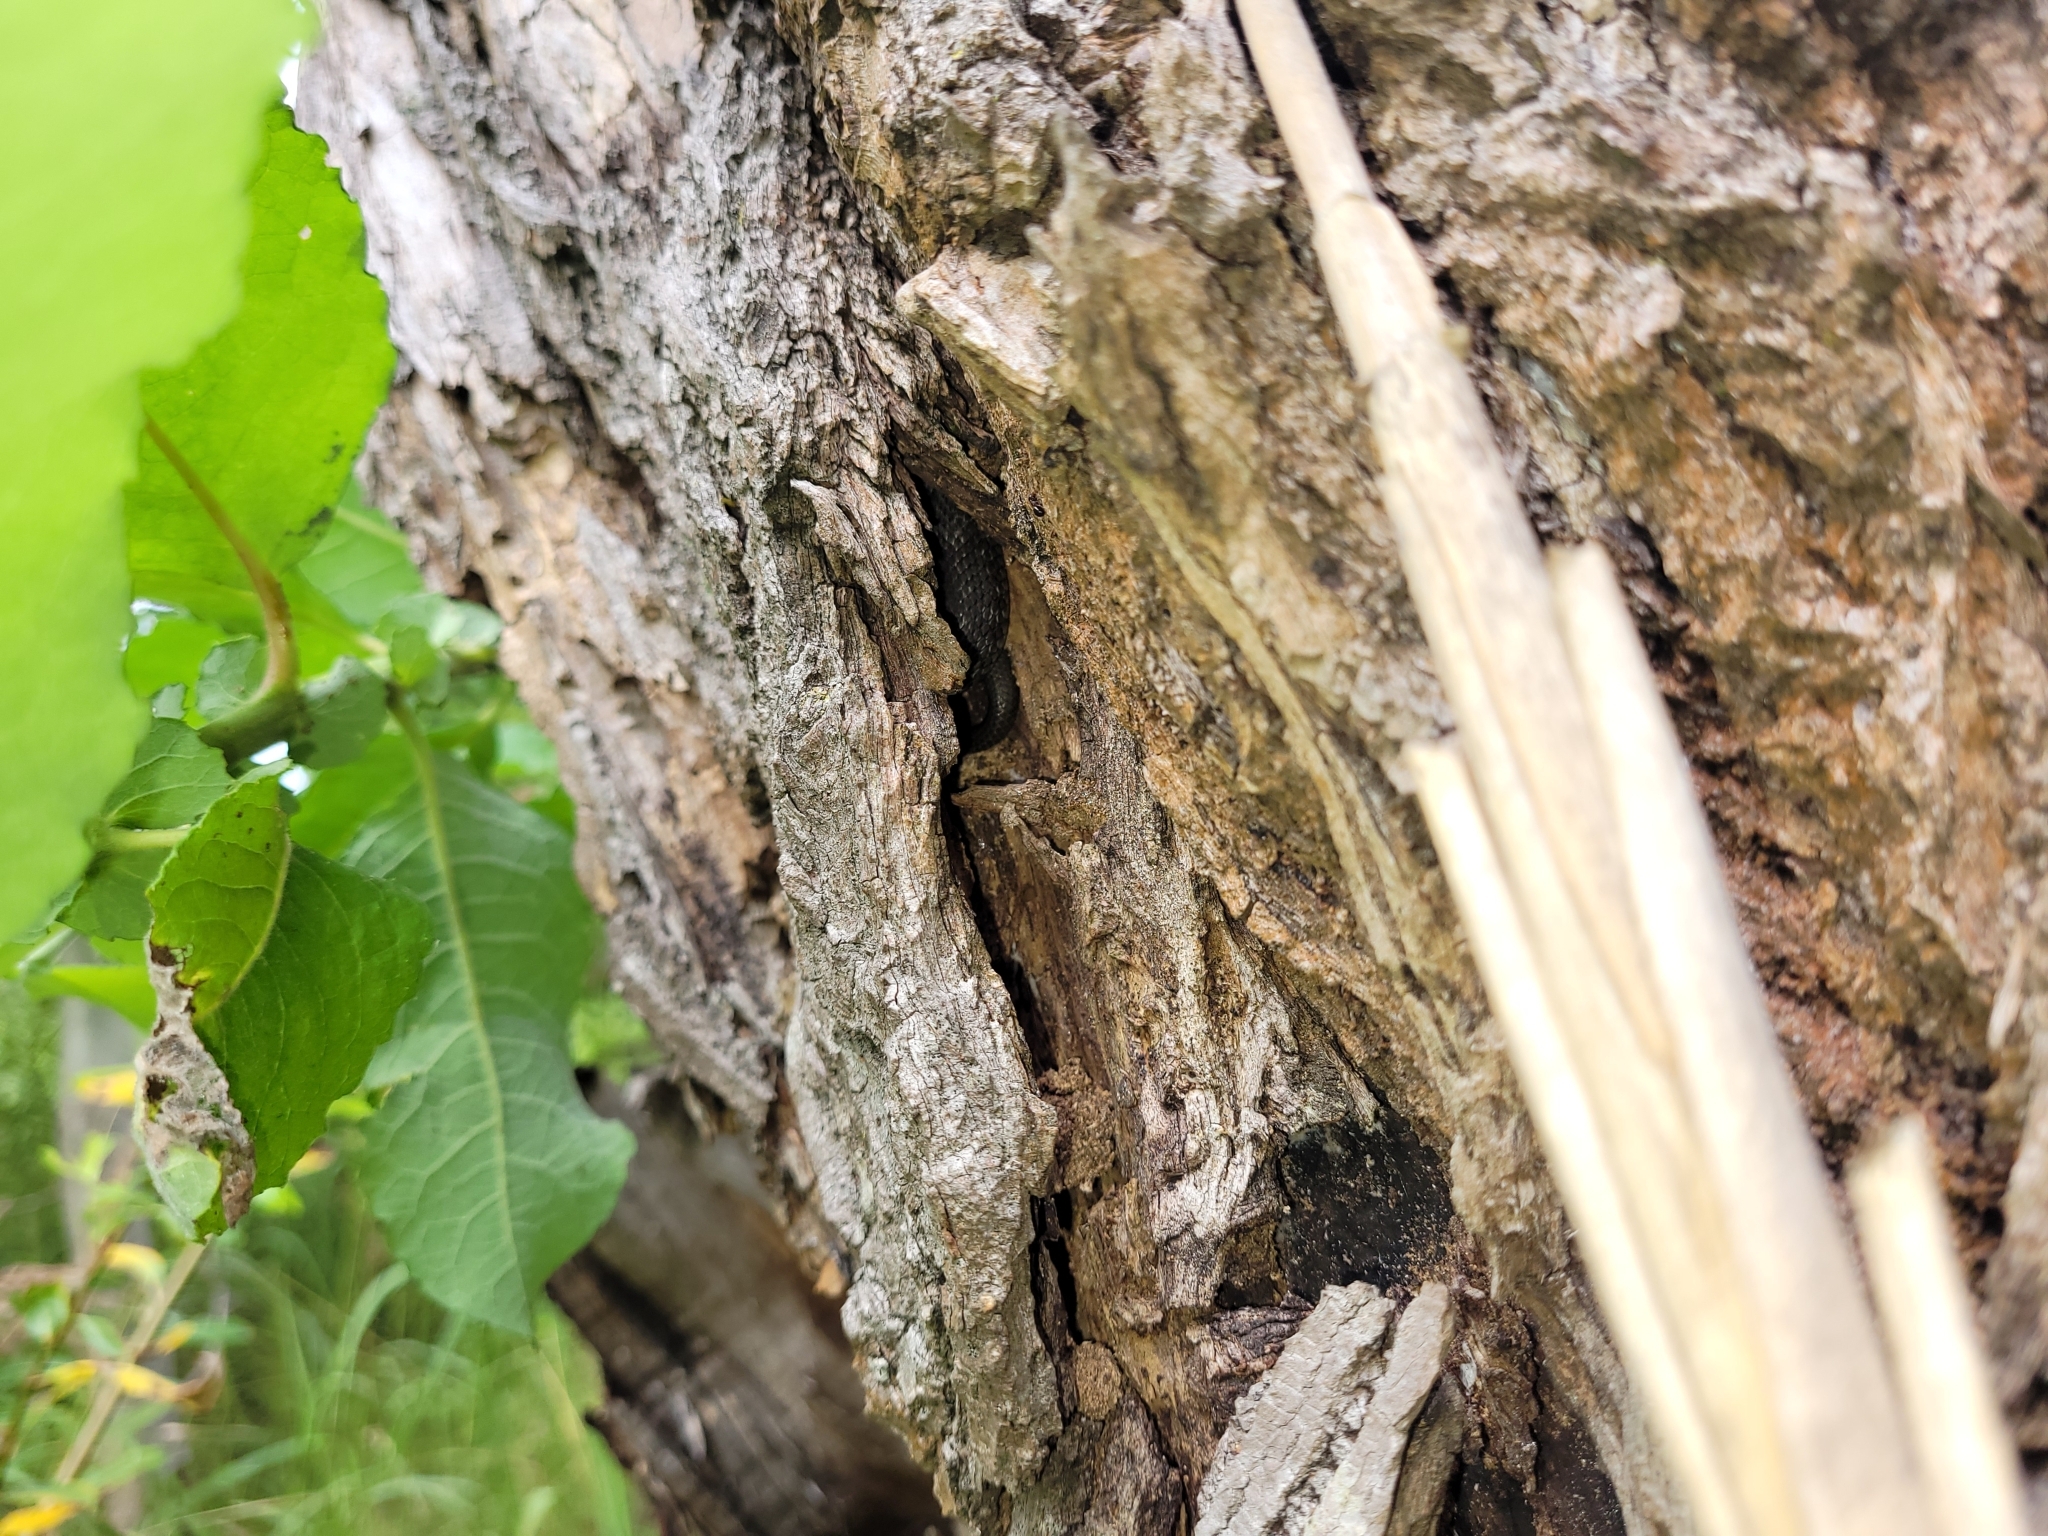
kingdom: Animalia
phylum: Chordata
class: Squamata
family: Colubridae
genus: Natrix
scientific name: Natrix natrix
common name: Grass snake
